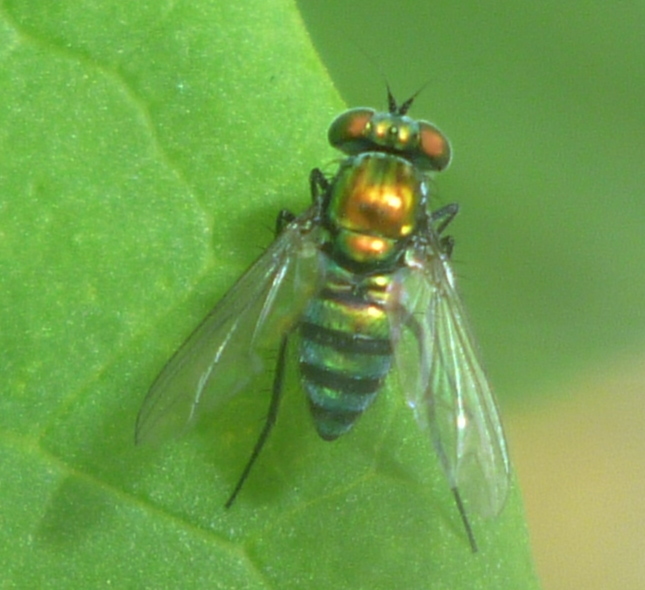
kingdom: Animalia
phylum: Arthropoda
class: Insecta
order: Diptera
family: Dolichopodidae
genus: Condylostylus
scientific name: Condylostylus mundus
